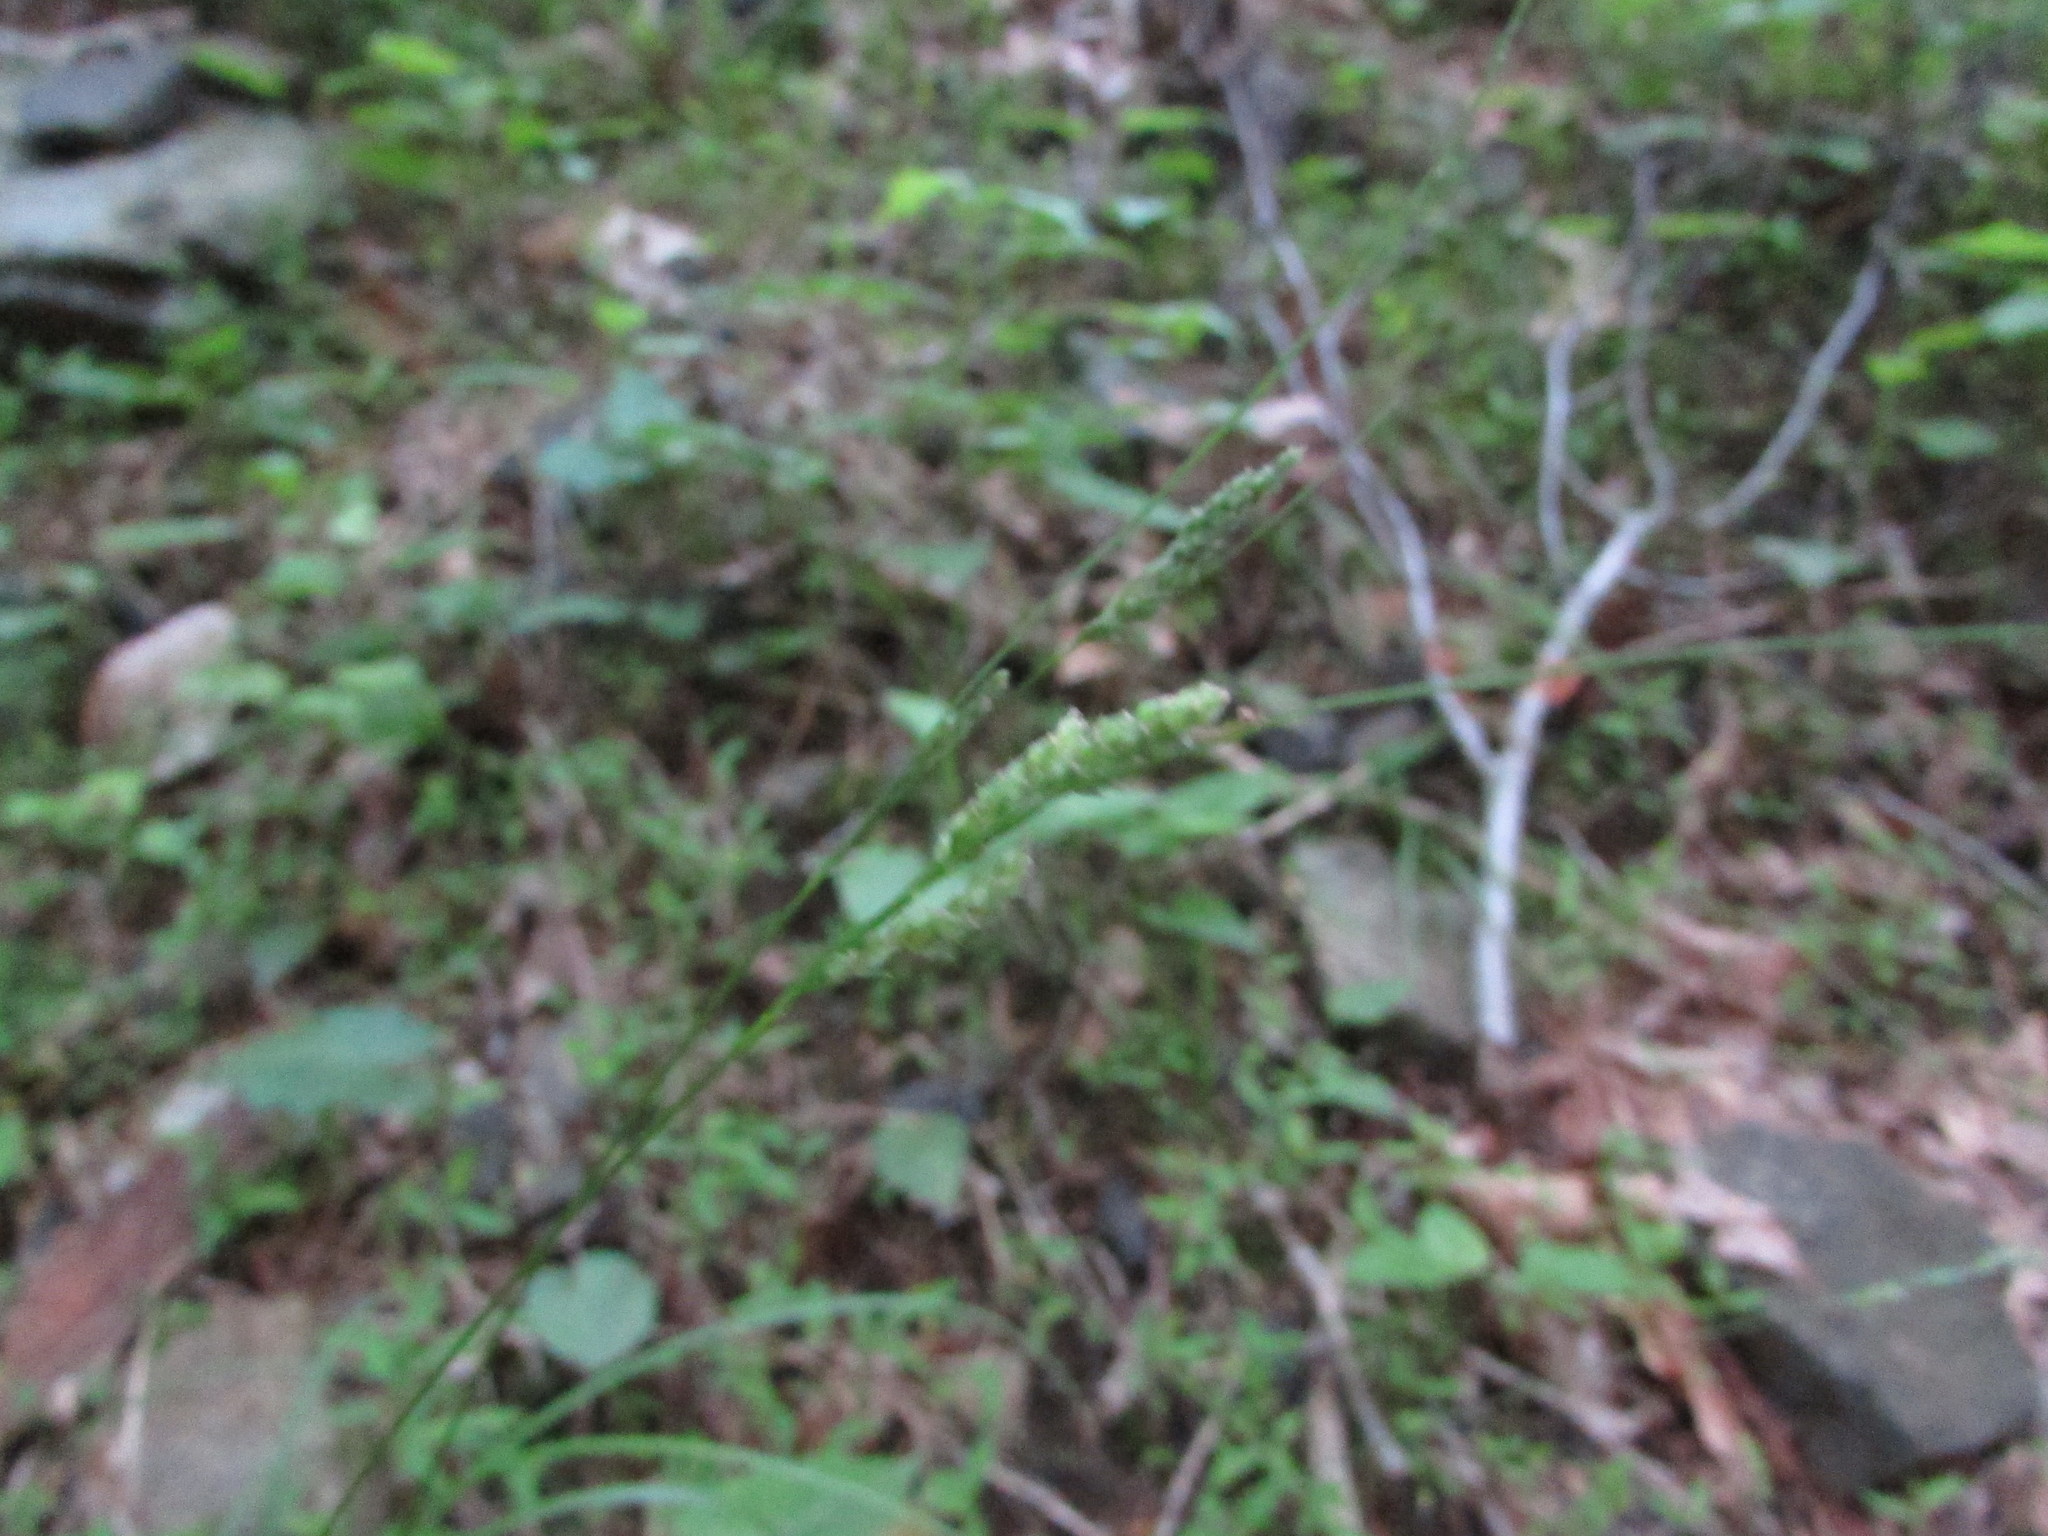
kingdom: Plantae
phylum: Tracheophyta
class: Liliopsida
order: Poales
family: Cyperaceae
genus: Carex
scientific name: Carex swanii
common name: Downy green sedge
